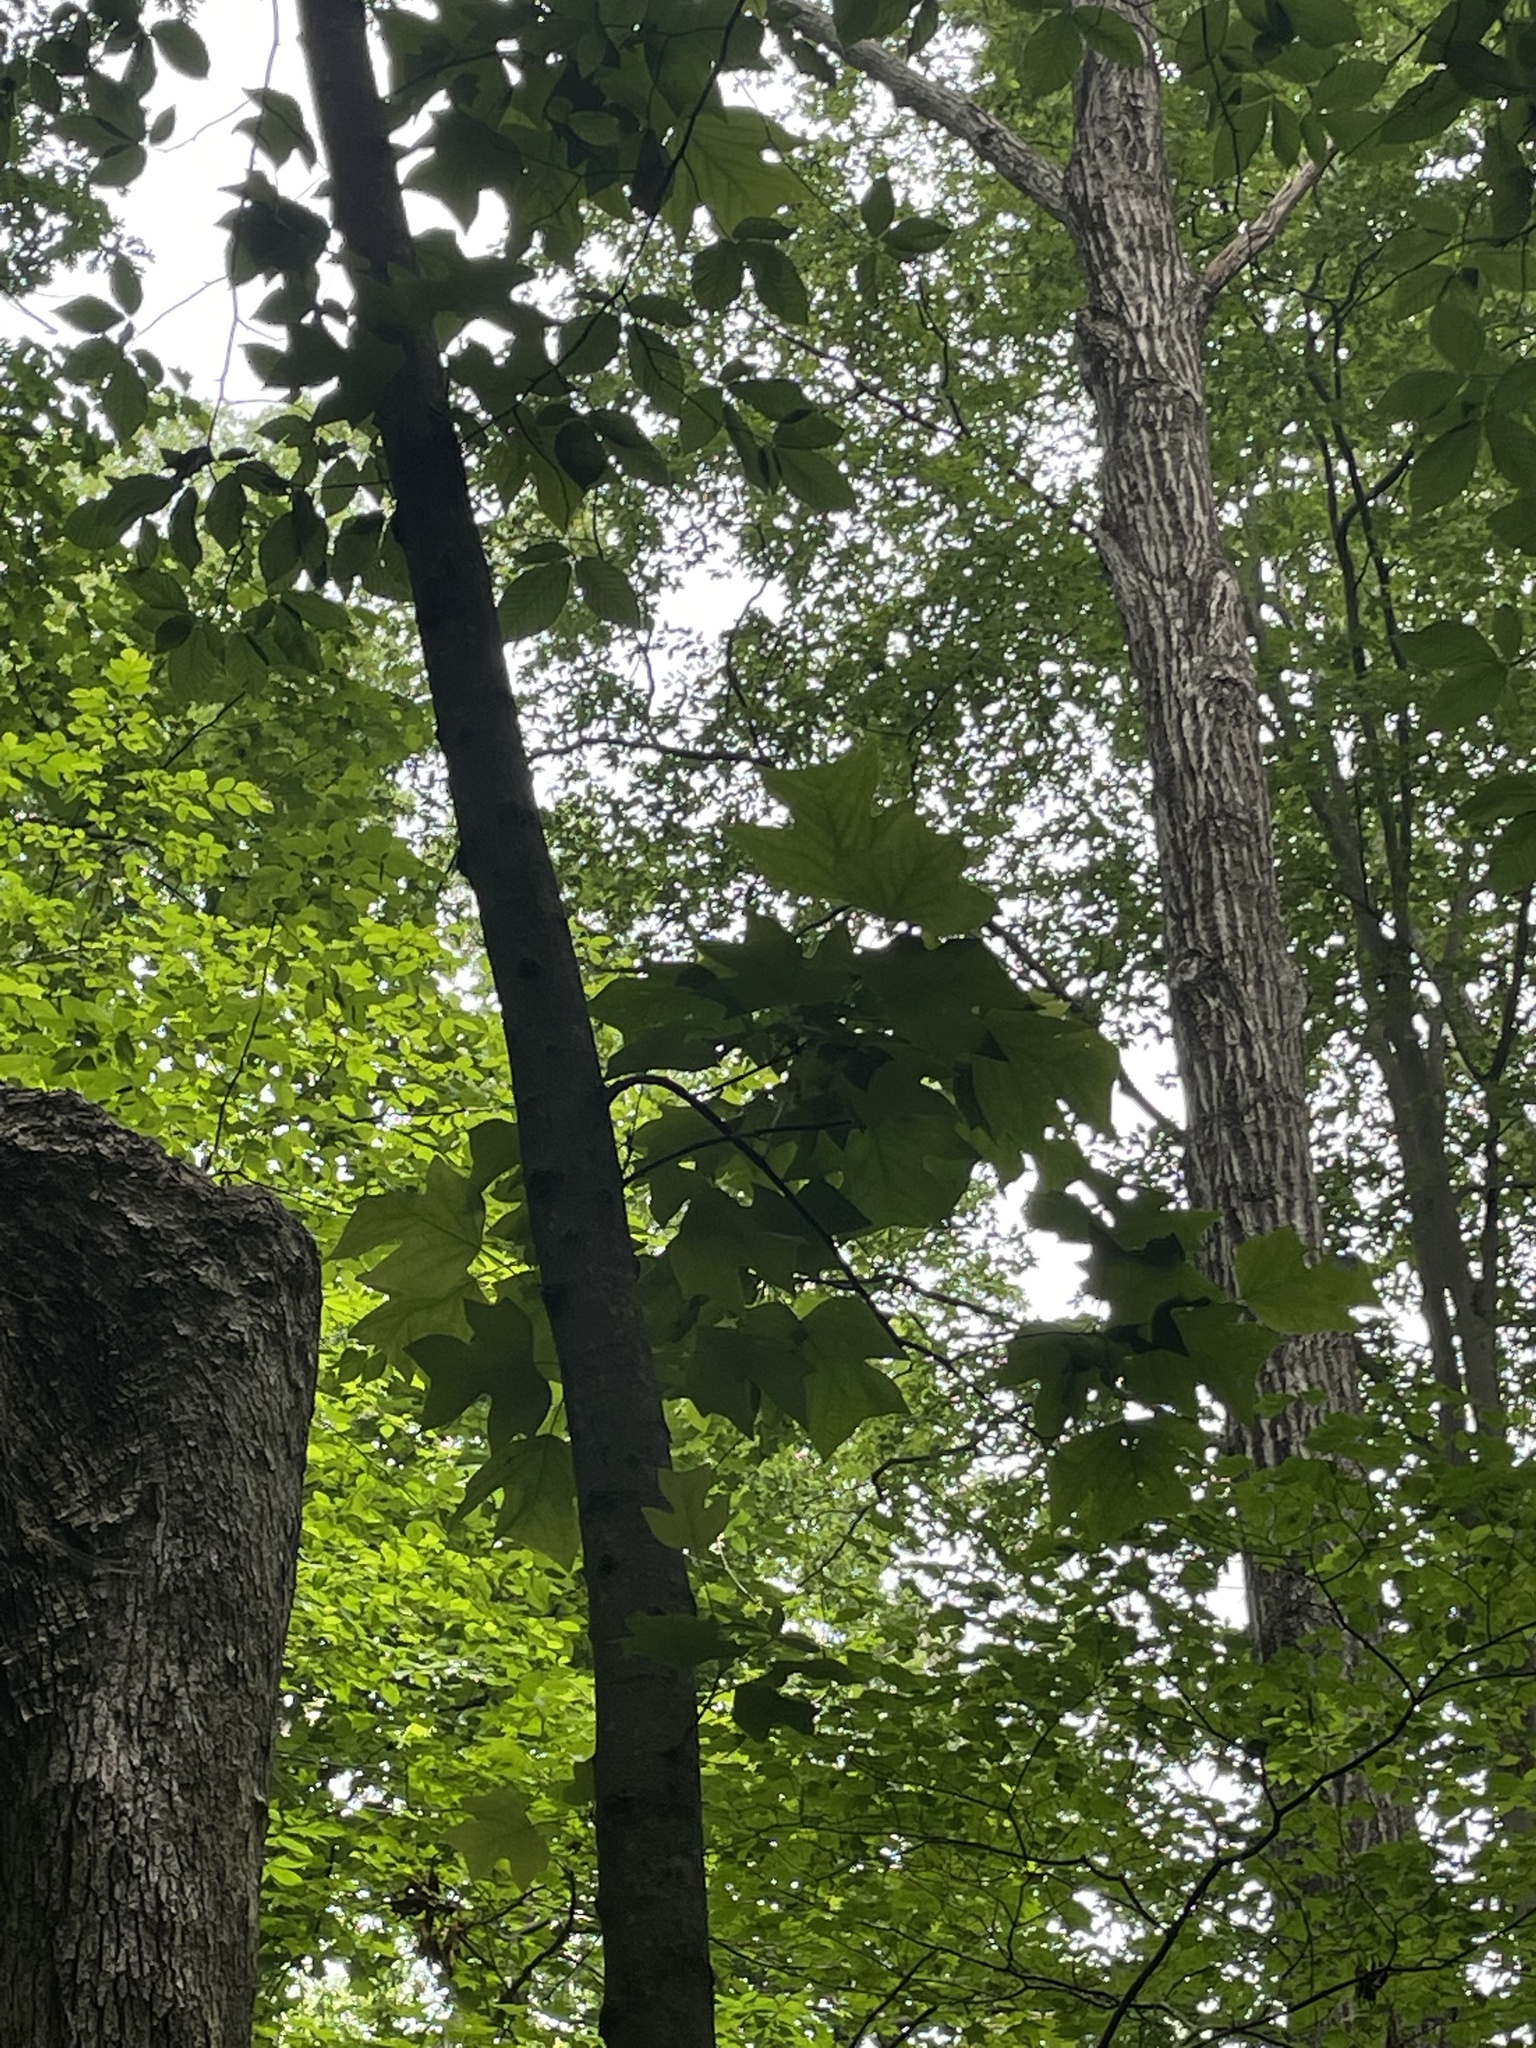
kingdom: Plantae
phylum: Tracheophyta
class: Magnoliopsida
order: Magnoliales
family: Magnoliaceae
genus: Liriodendron
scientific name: Liriodendron tulipifera
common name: Tulip tree
